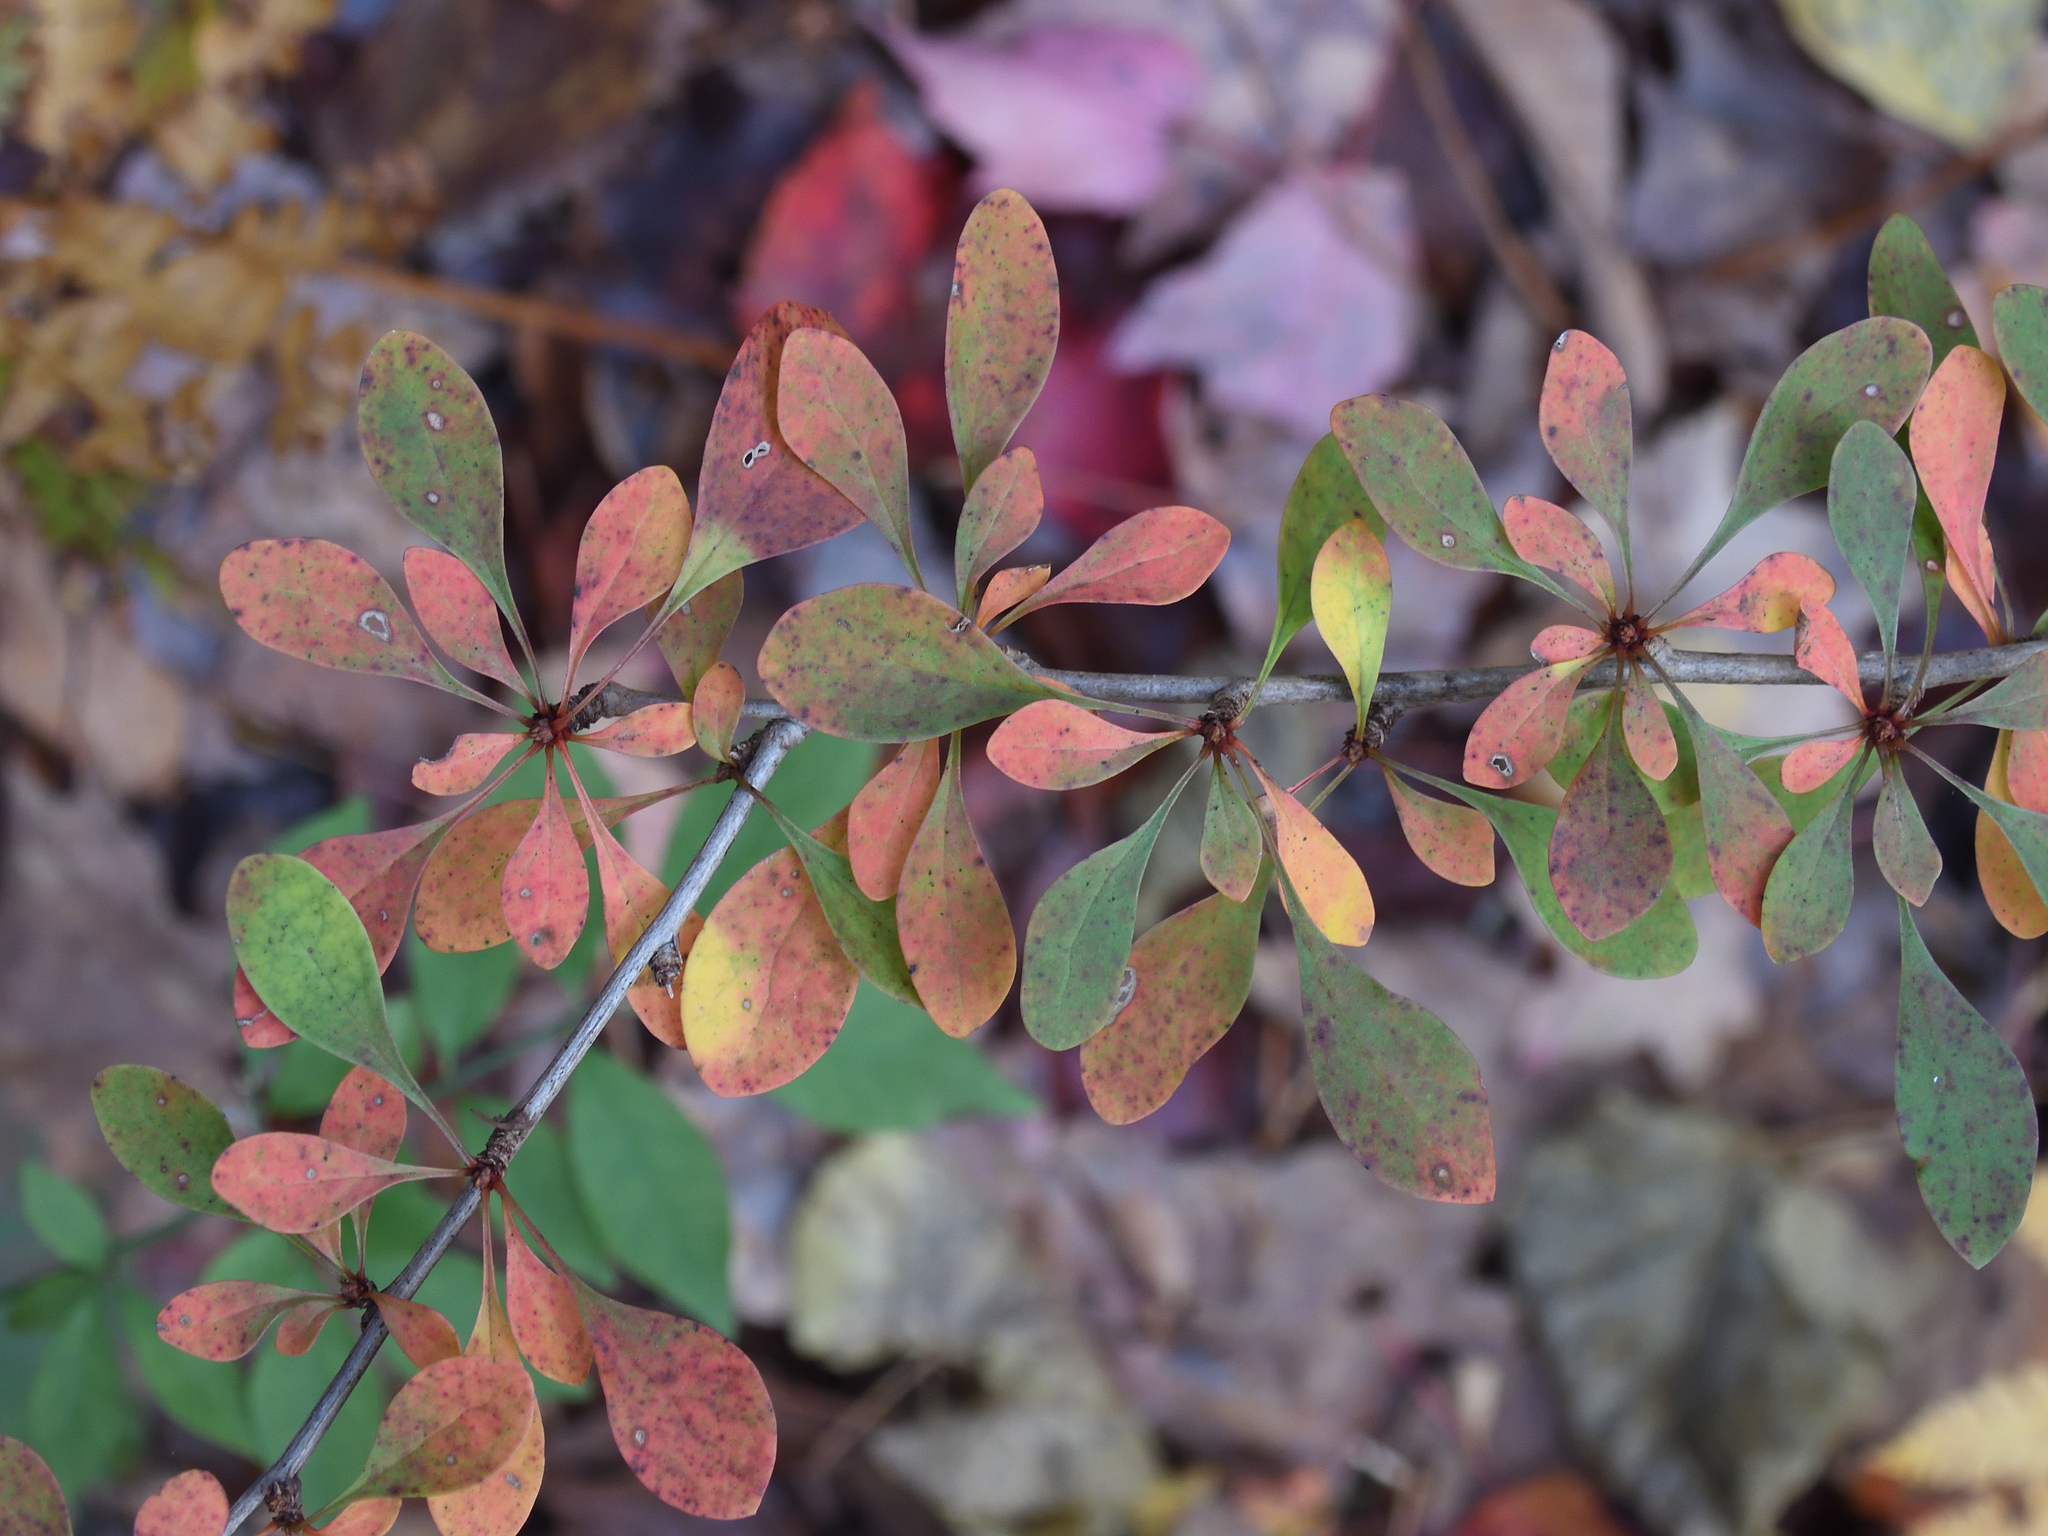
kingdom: Plantae
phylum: Tracheophyta
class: Magnoliopsida
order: Ranunculales
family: Berberidaceae
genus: Berberis
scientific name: Berberis thunbergii
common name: Japanese barberry
